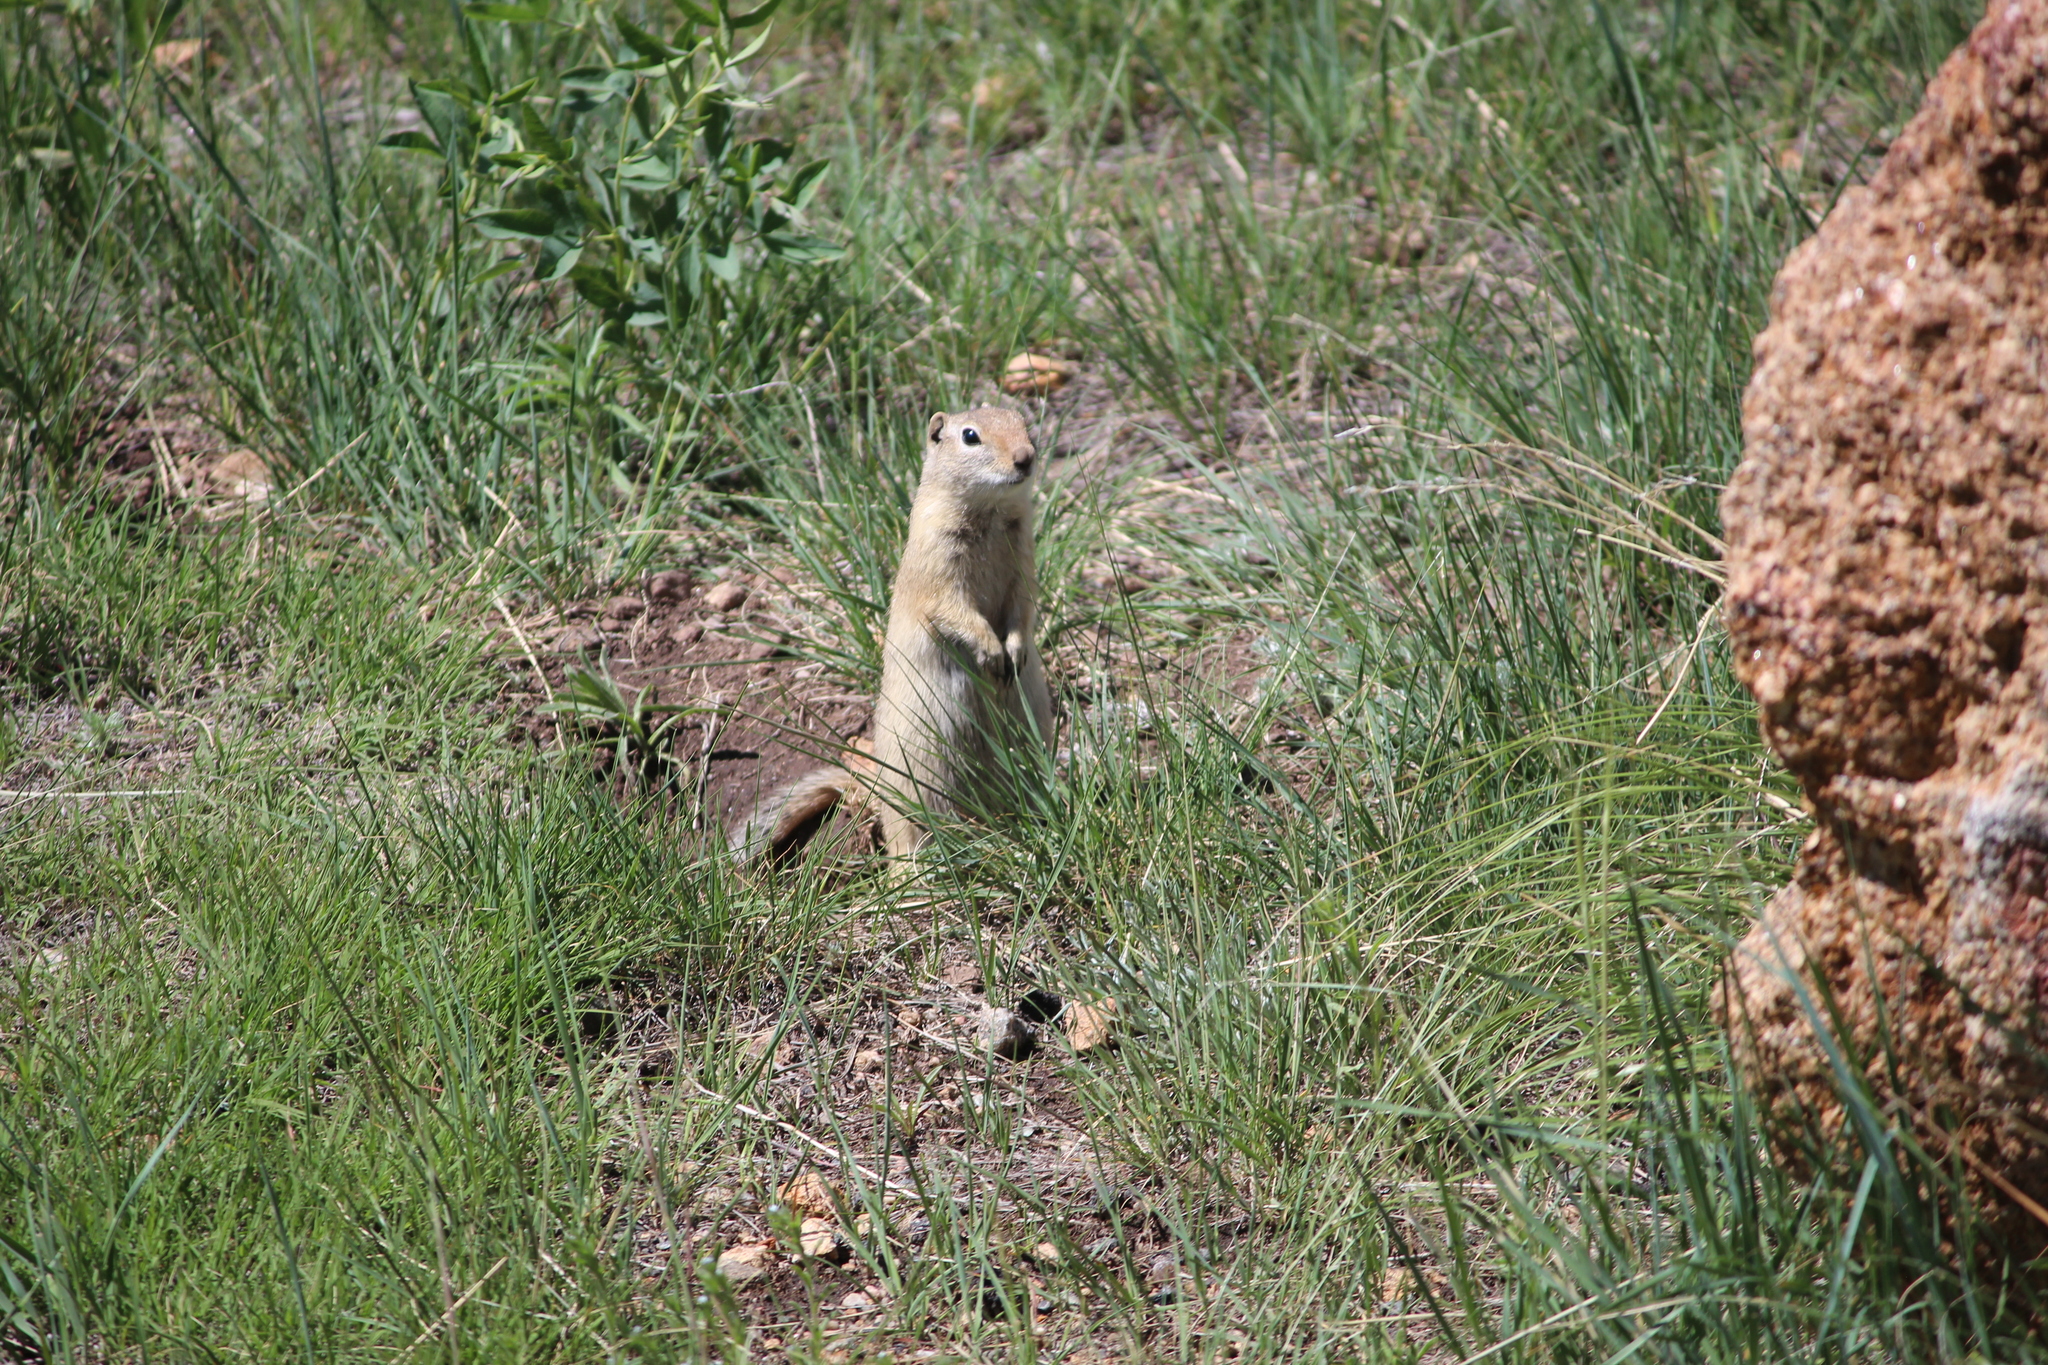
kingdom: Animalia
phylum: Chordata
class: Mammalia
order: Rodentia
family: Sciuridae
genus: Urocitellus
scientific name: Urocitellus elegans
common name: Wyoming ground squirrel
